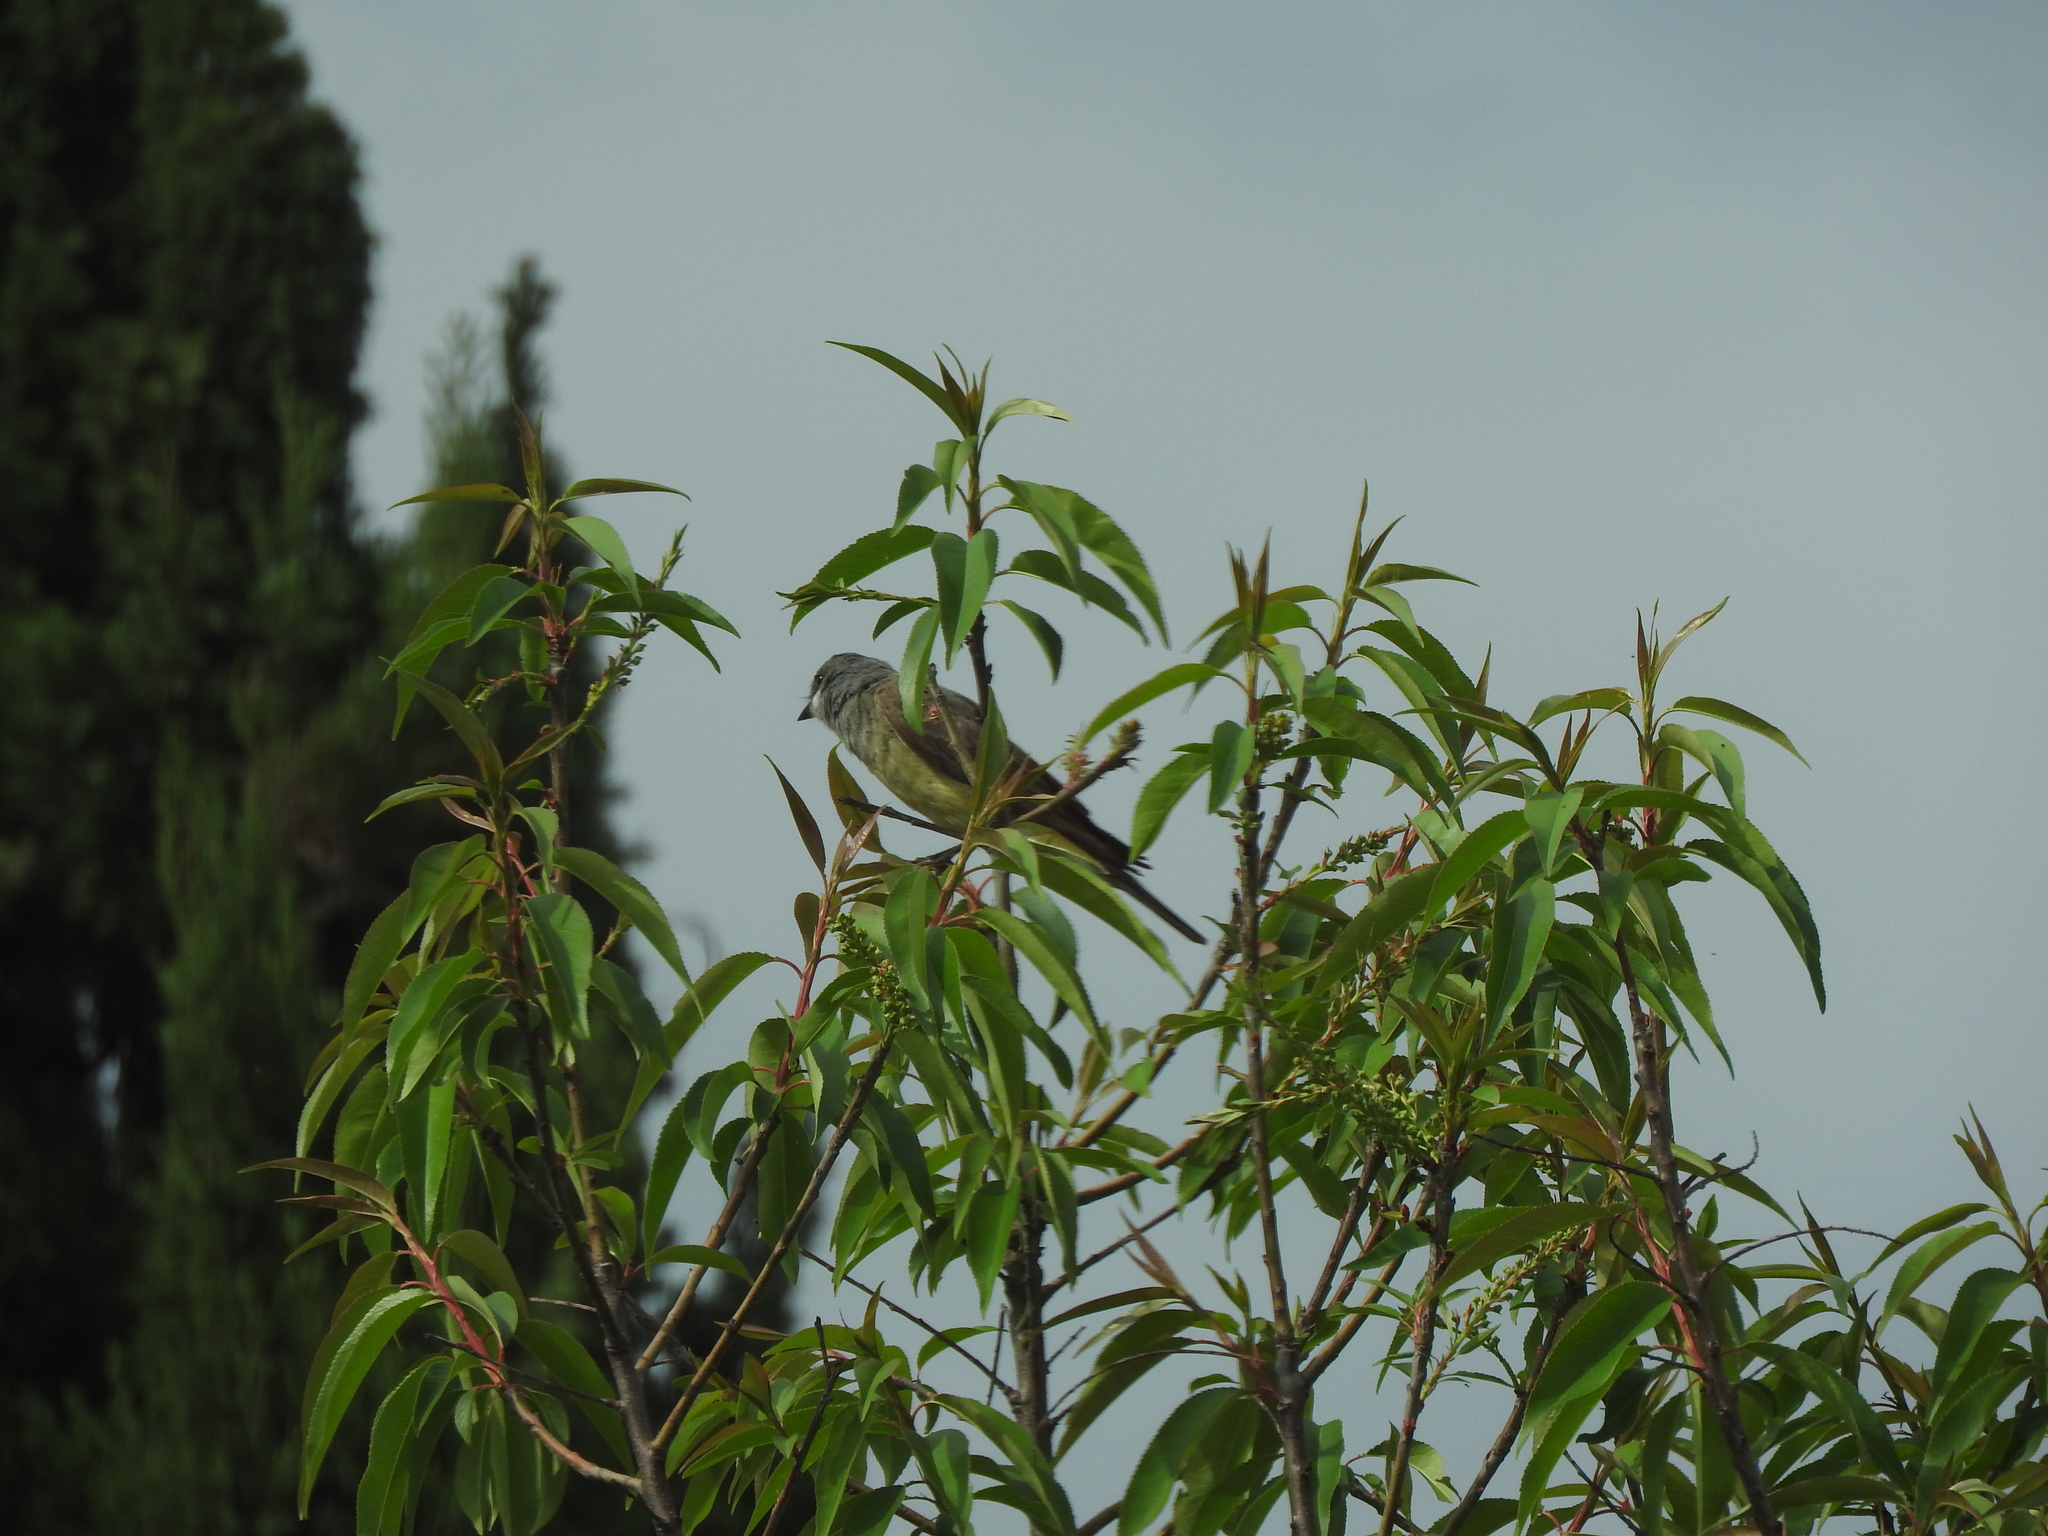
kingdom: Animalia
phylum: Chordata
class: Aves
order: Passeriformes
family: Tyrannidae
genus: Tyrannus
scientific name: Tyrannus vociferans
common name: Cassin's kingbird
